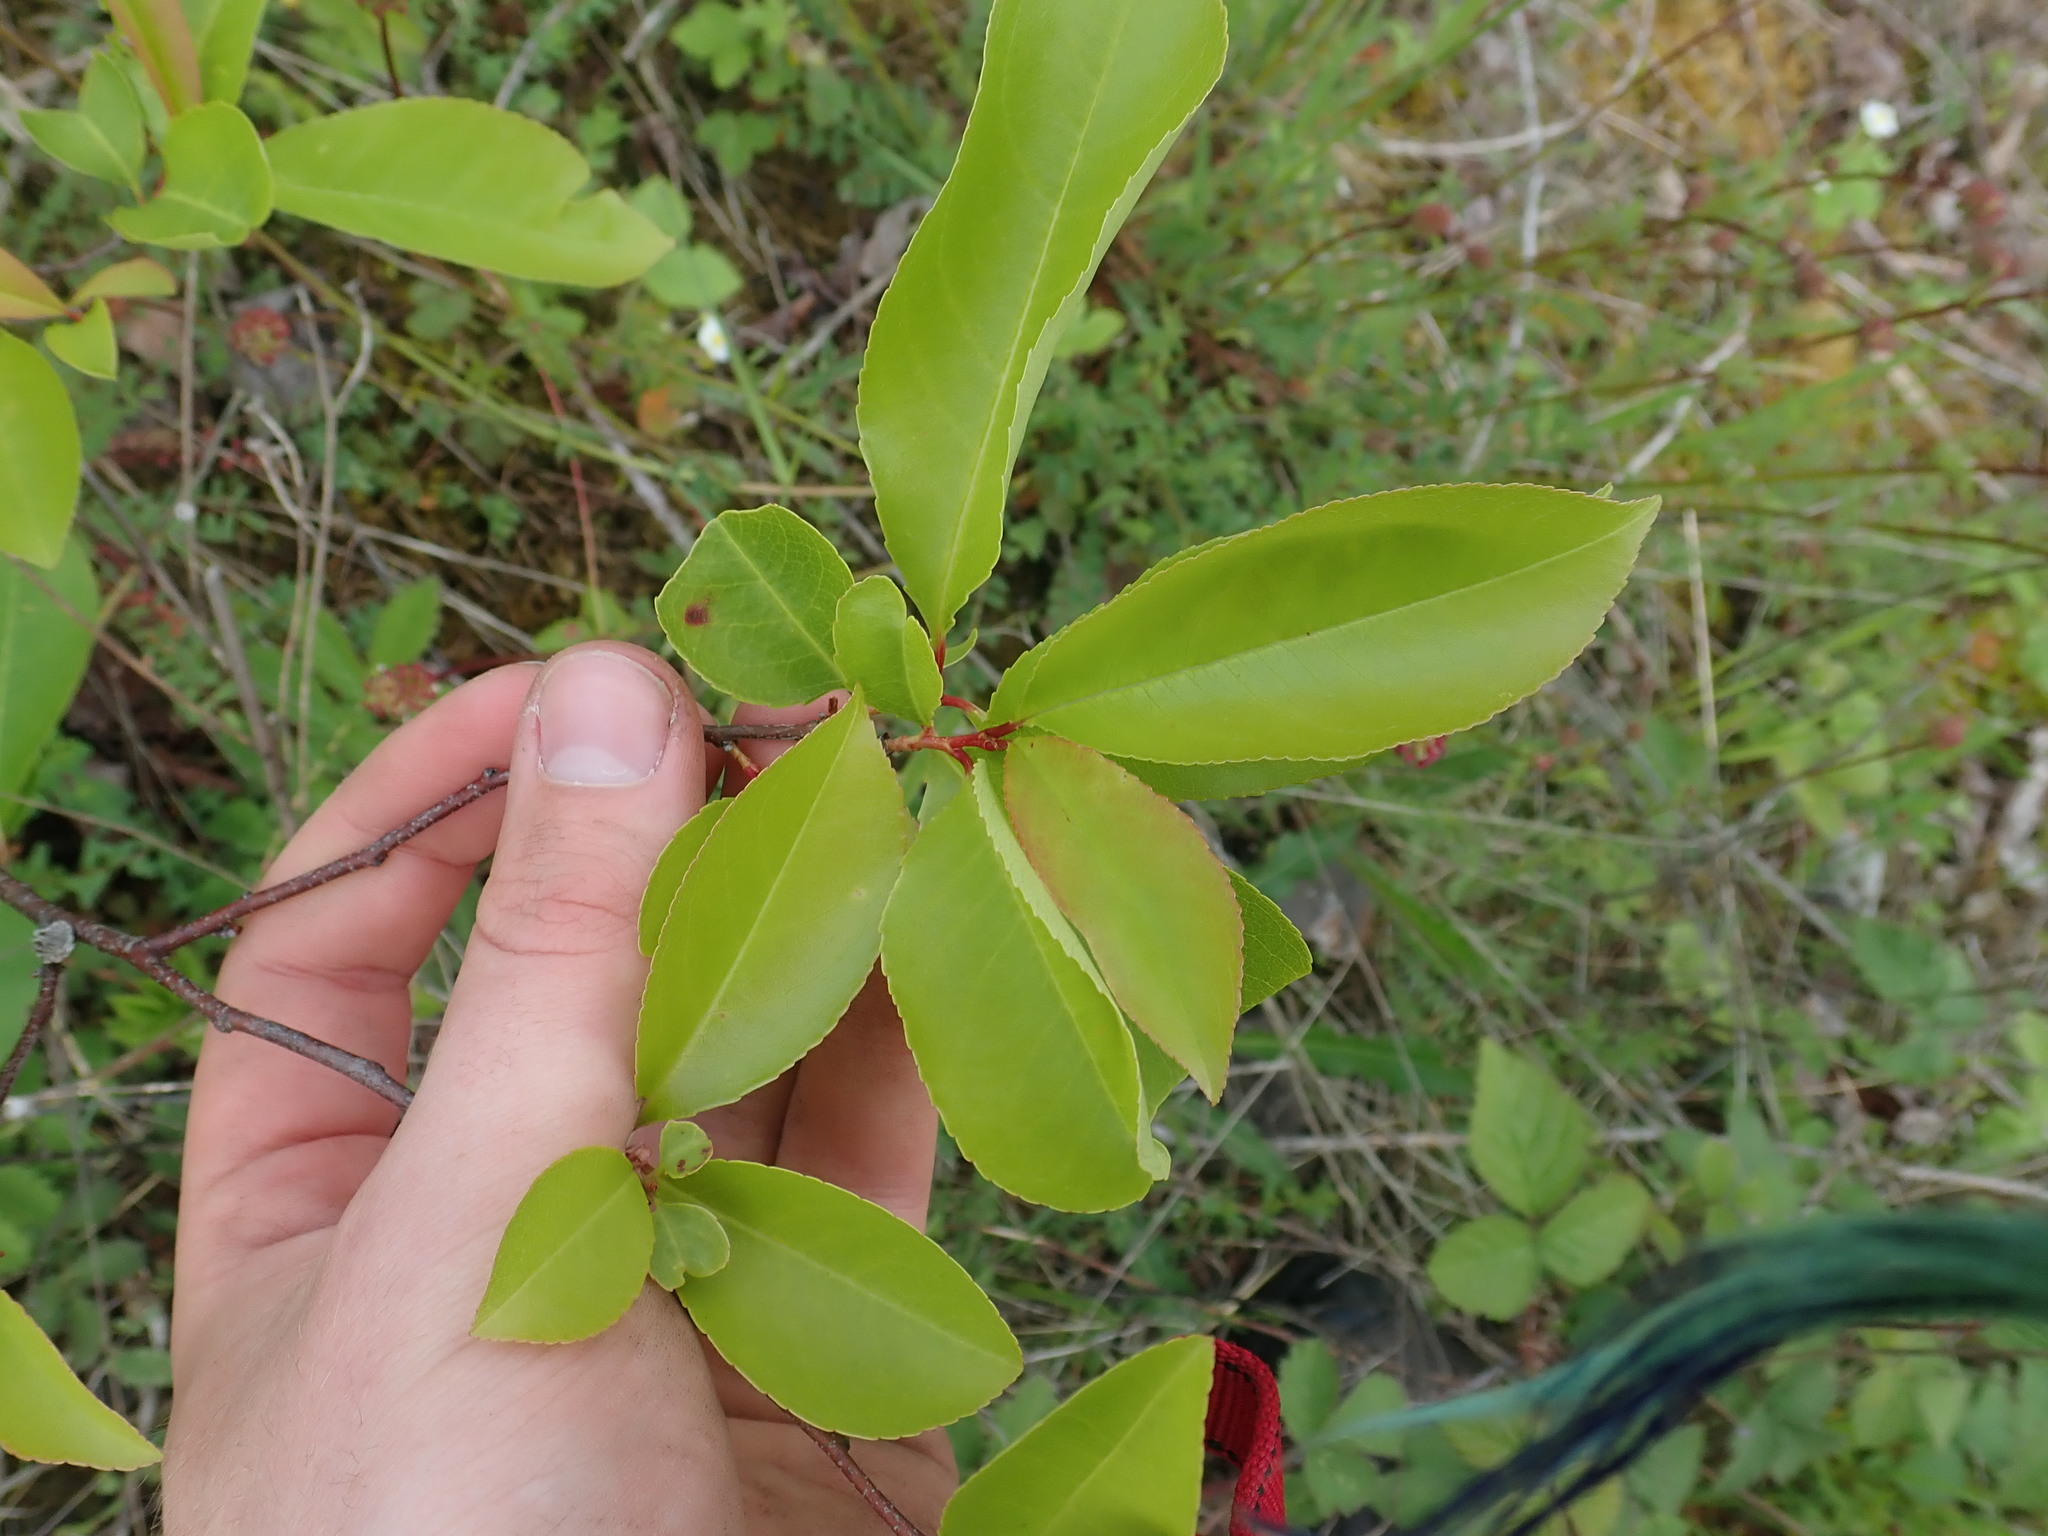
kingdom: Plantae
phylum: Tracheophyta
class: Magnoliopsida
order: Rosales
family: Rosaceae
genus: Prunus
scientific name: Prunus serotina
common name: Black cherry
